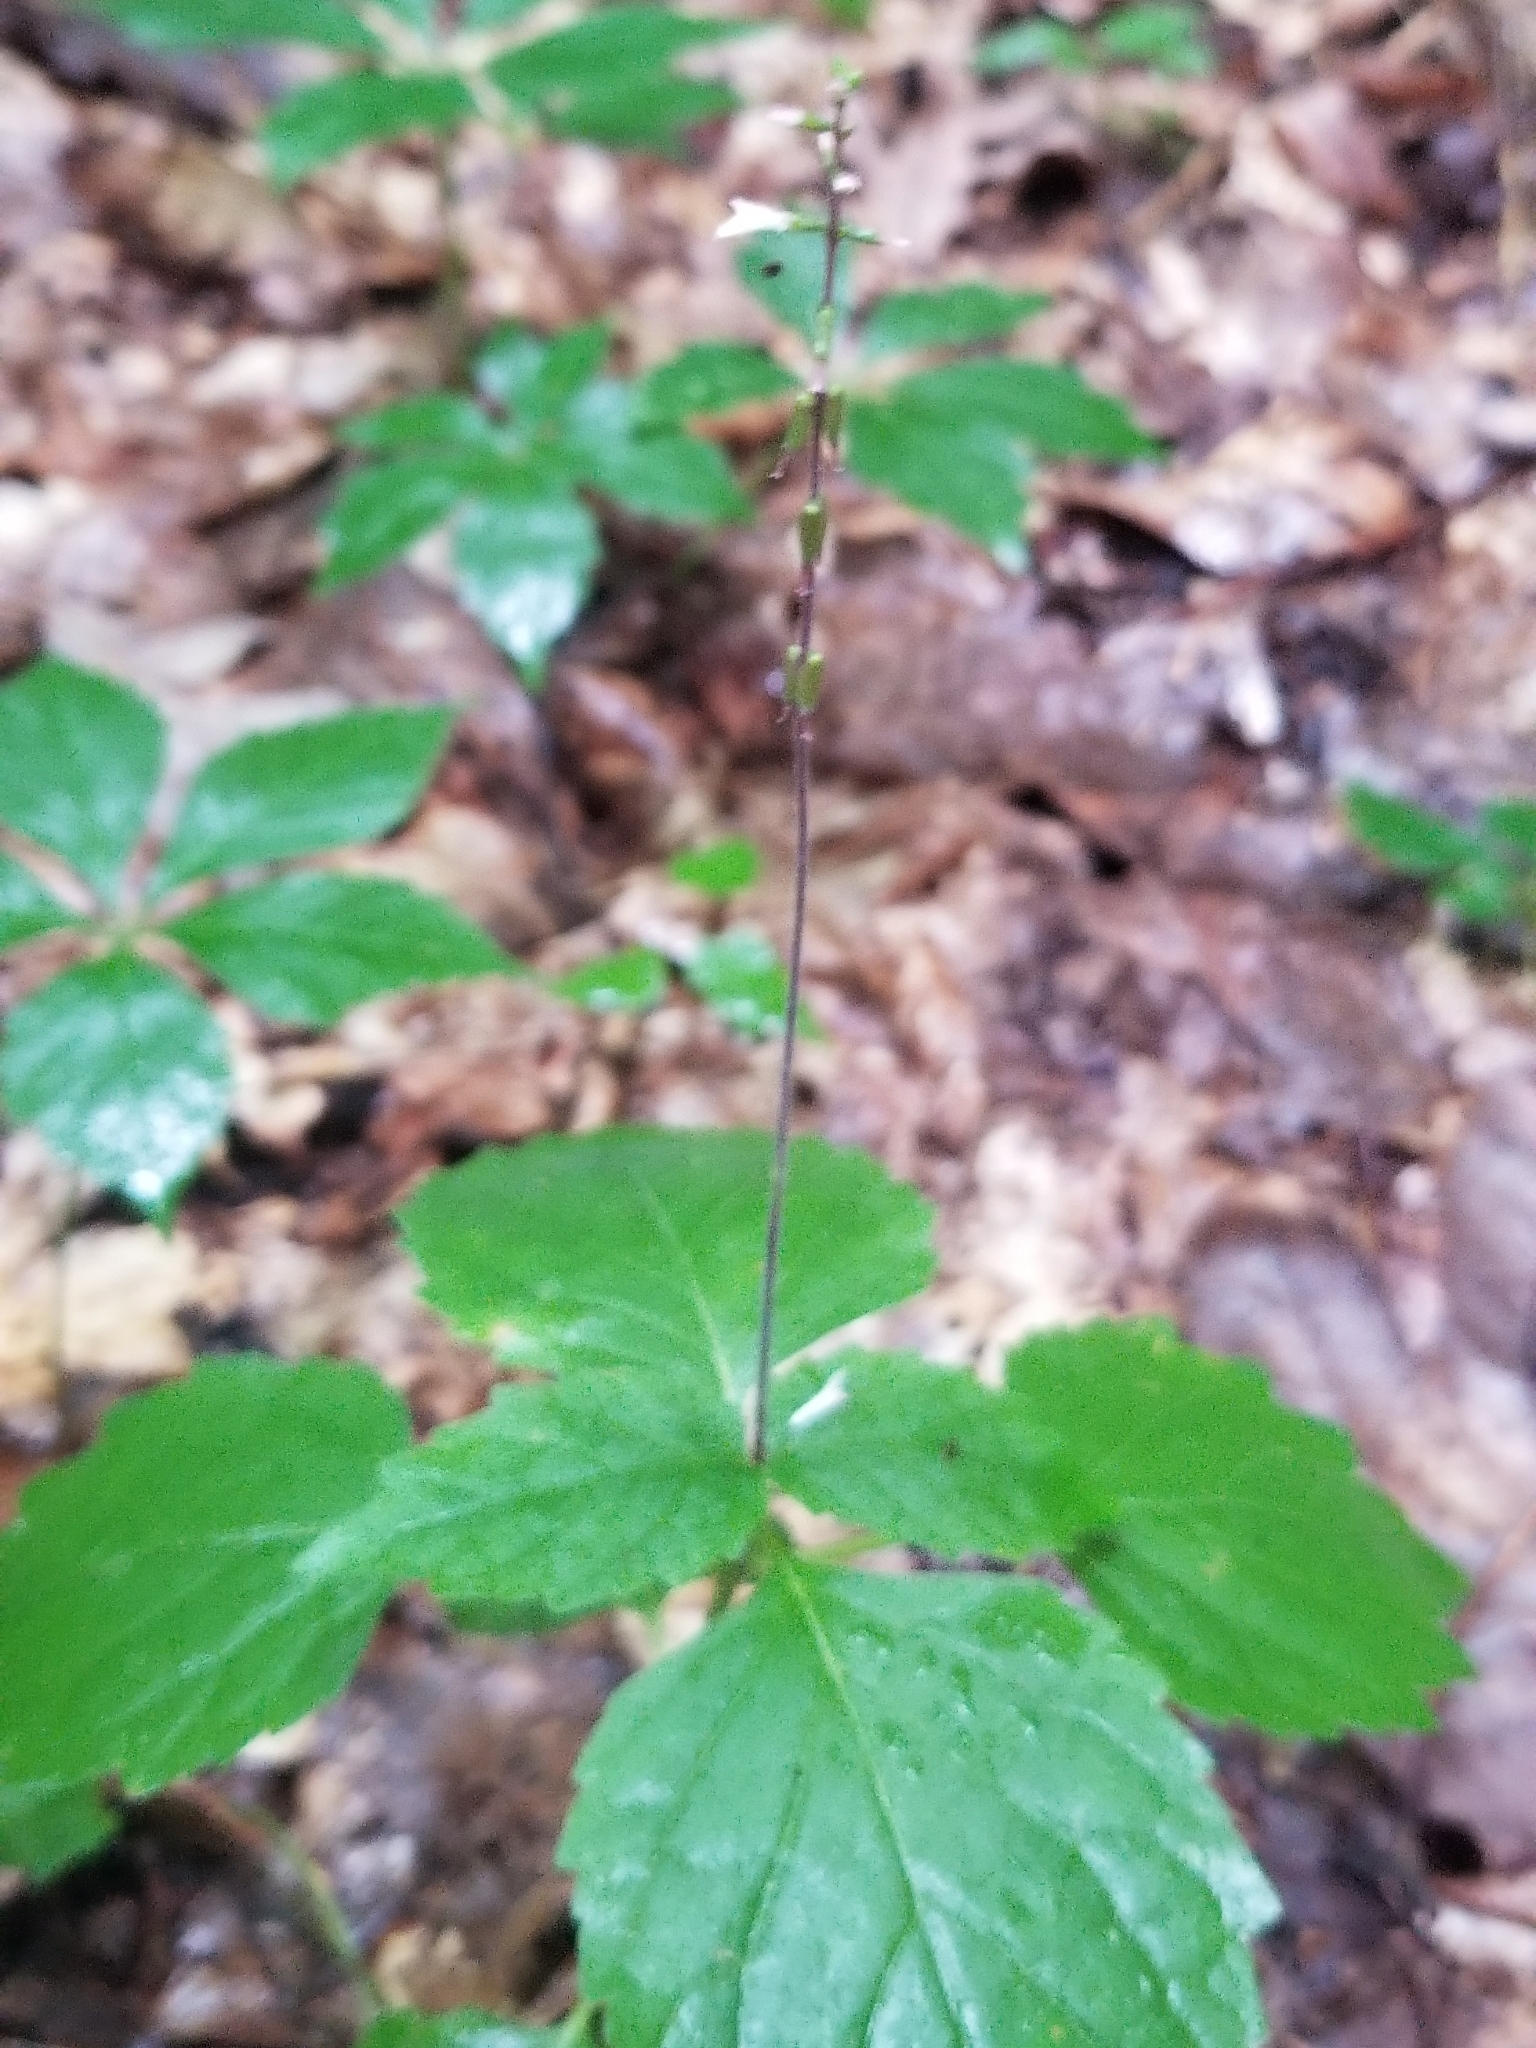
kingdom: Plantae
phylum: Tracheophyta
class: Magnoliopsida
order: Lamiales
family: Phrymaceae
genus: Phryma
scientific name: Phryma leptostachya
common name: American lopseed
